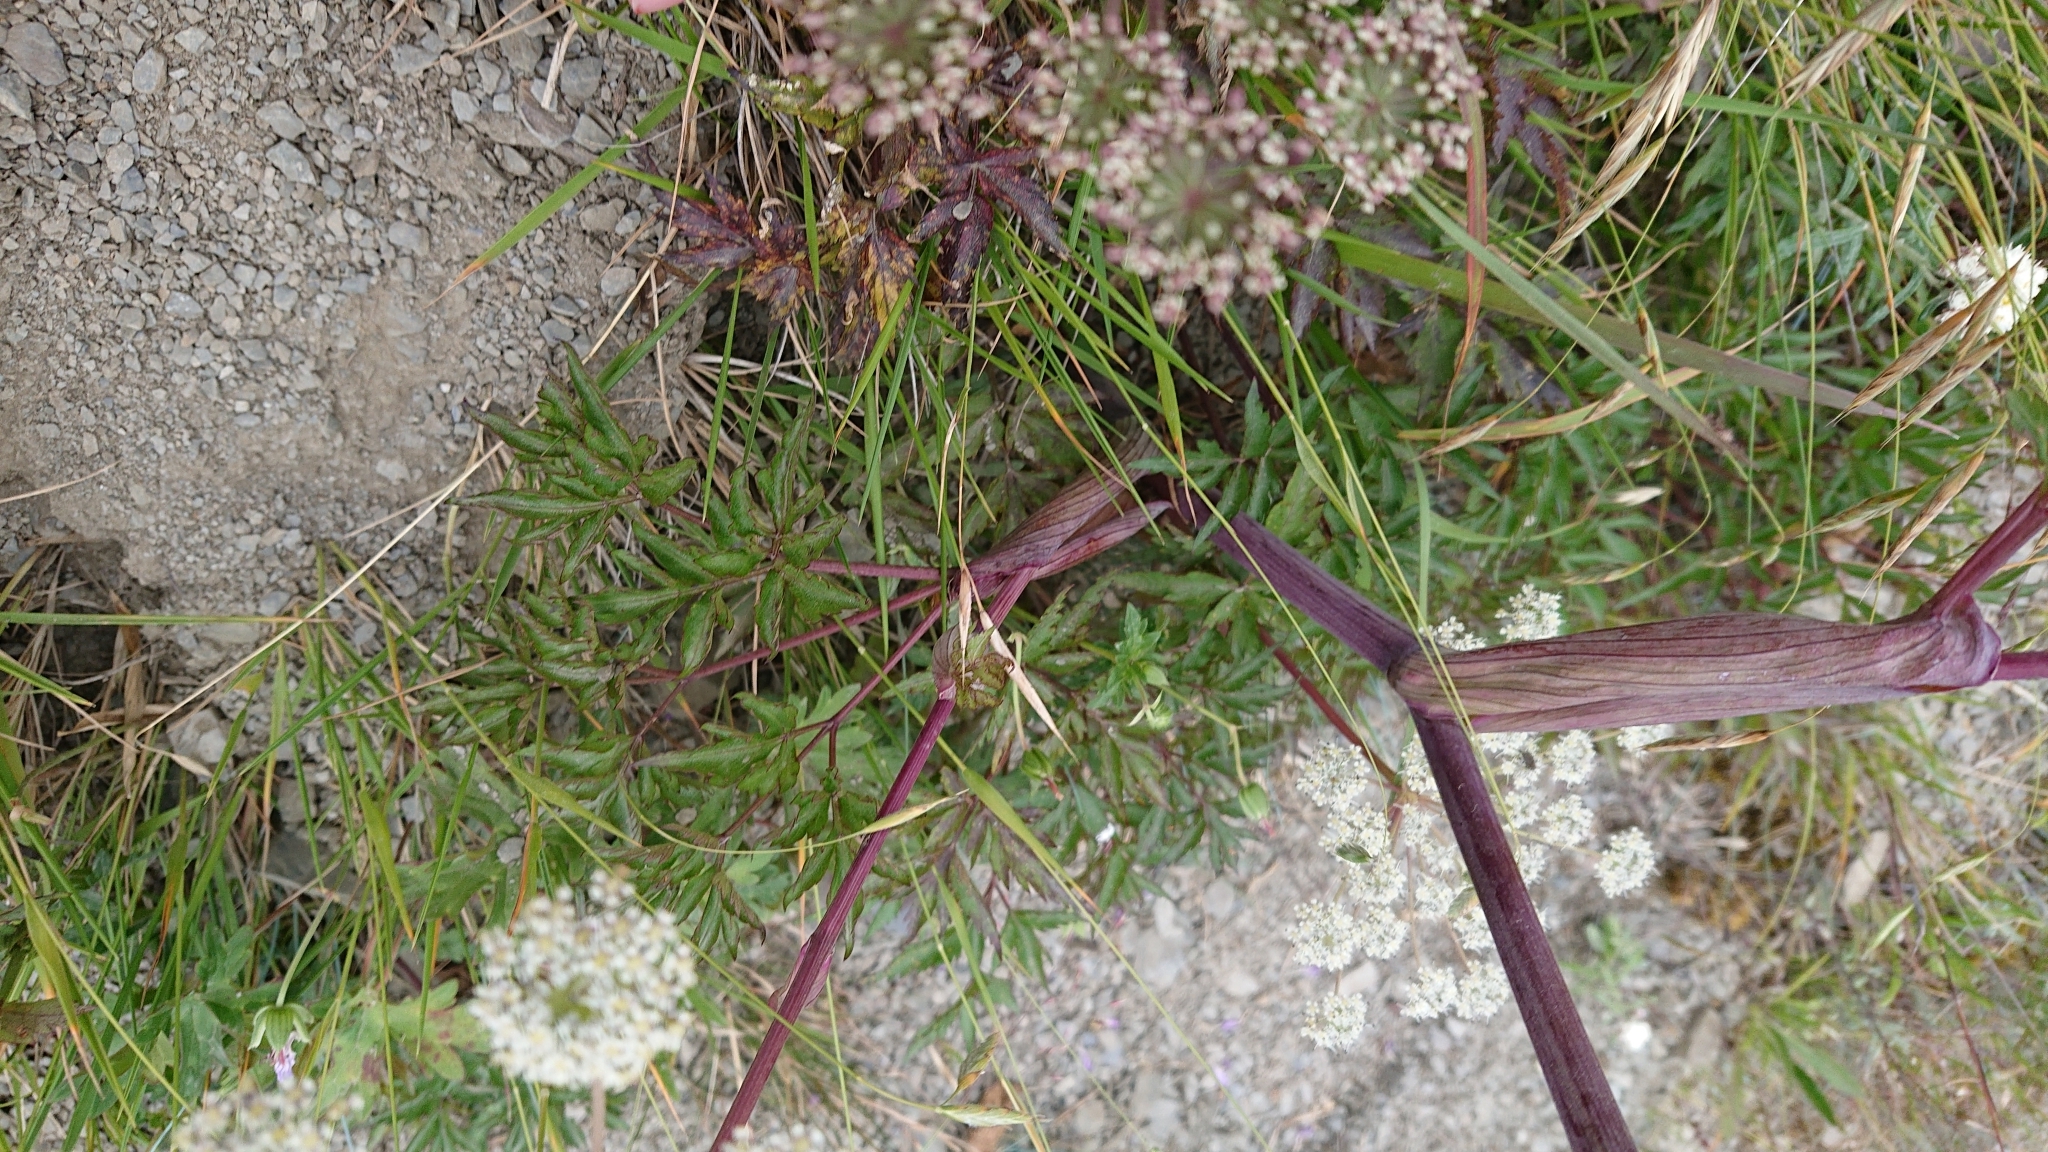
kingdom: Plantae
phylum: Tracheophyta
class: Magnoliopsida
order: Apiales
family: Apiaceae
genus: Angelica
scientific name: Angelica morii
